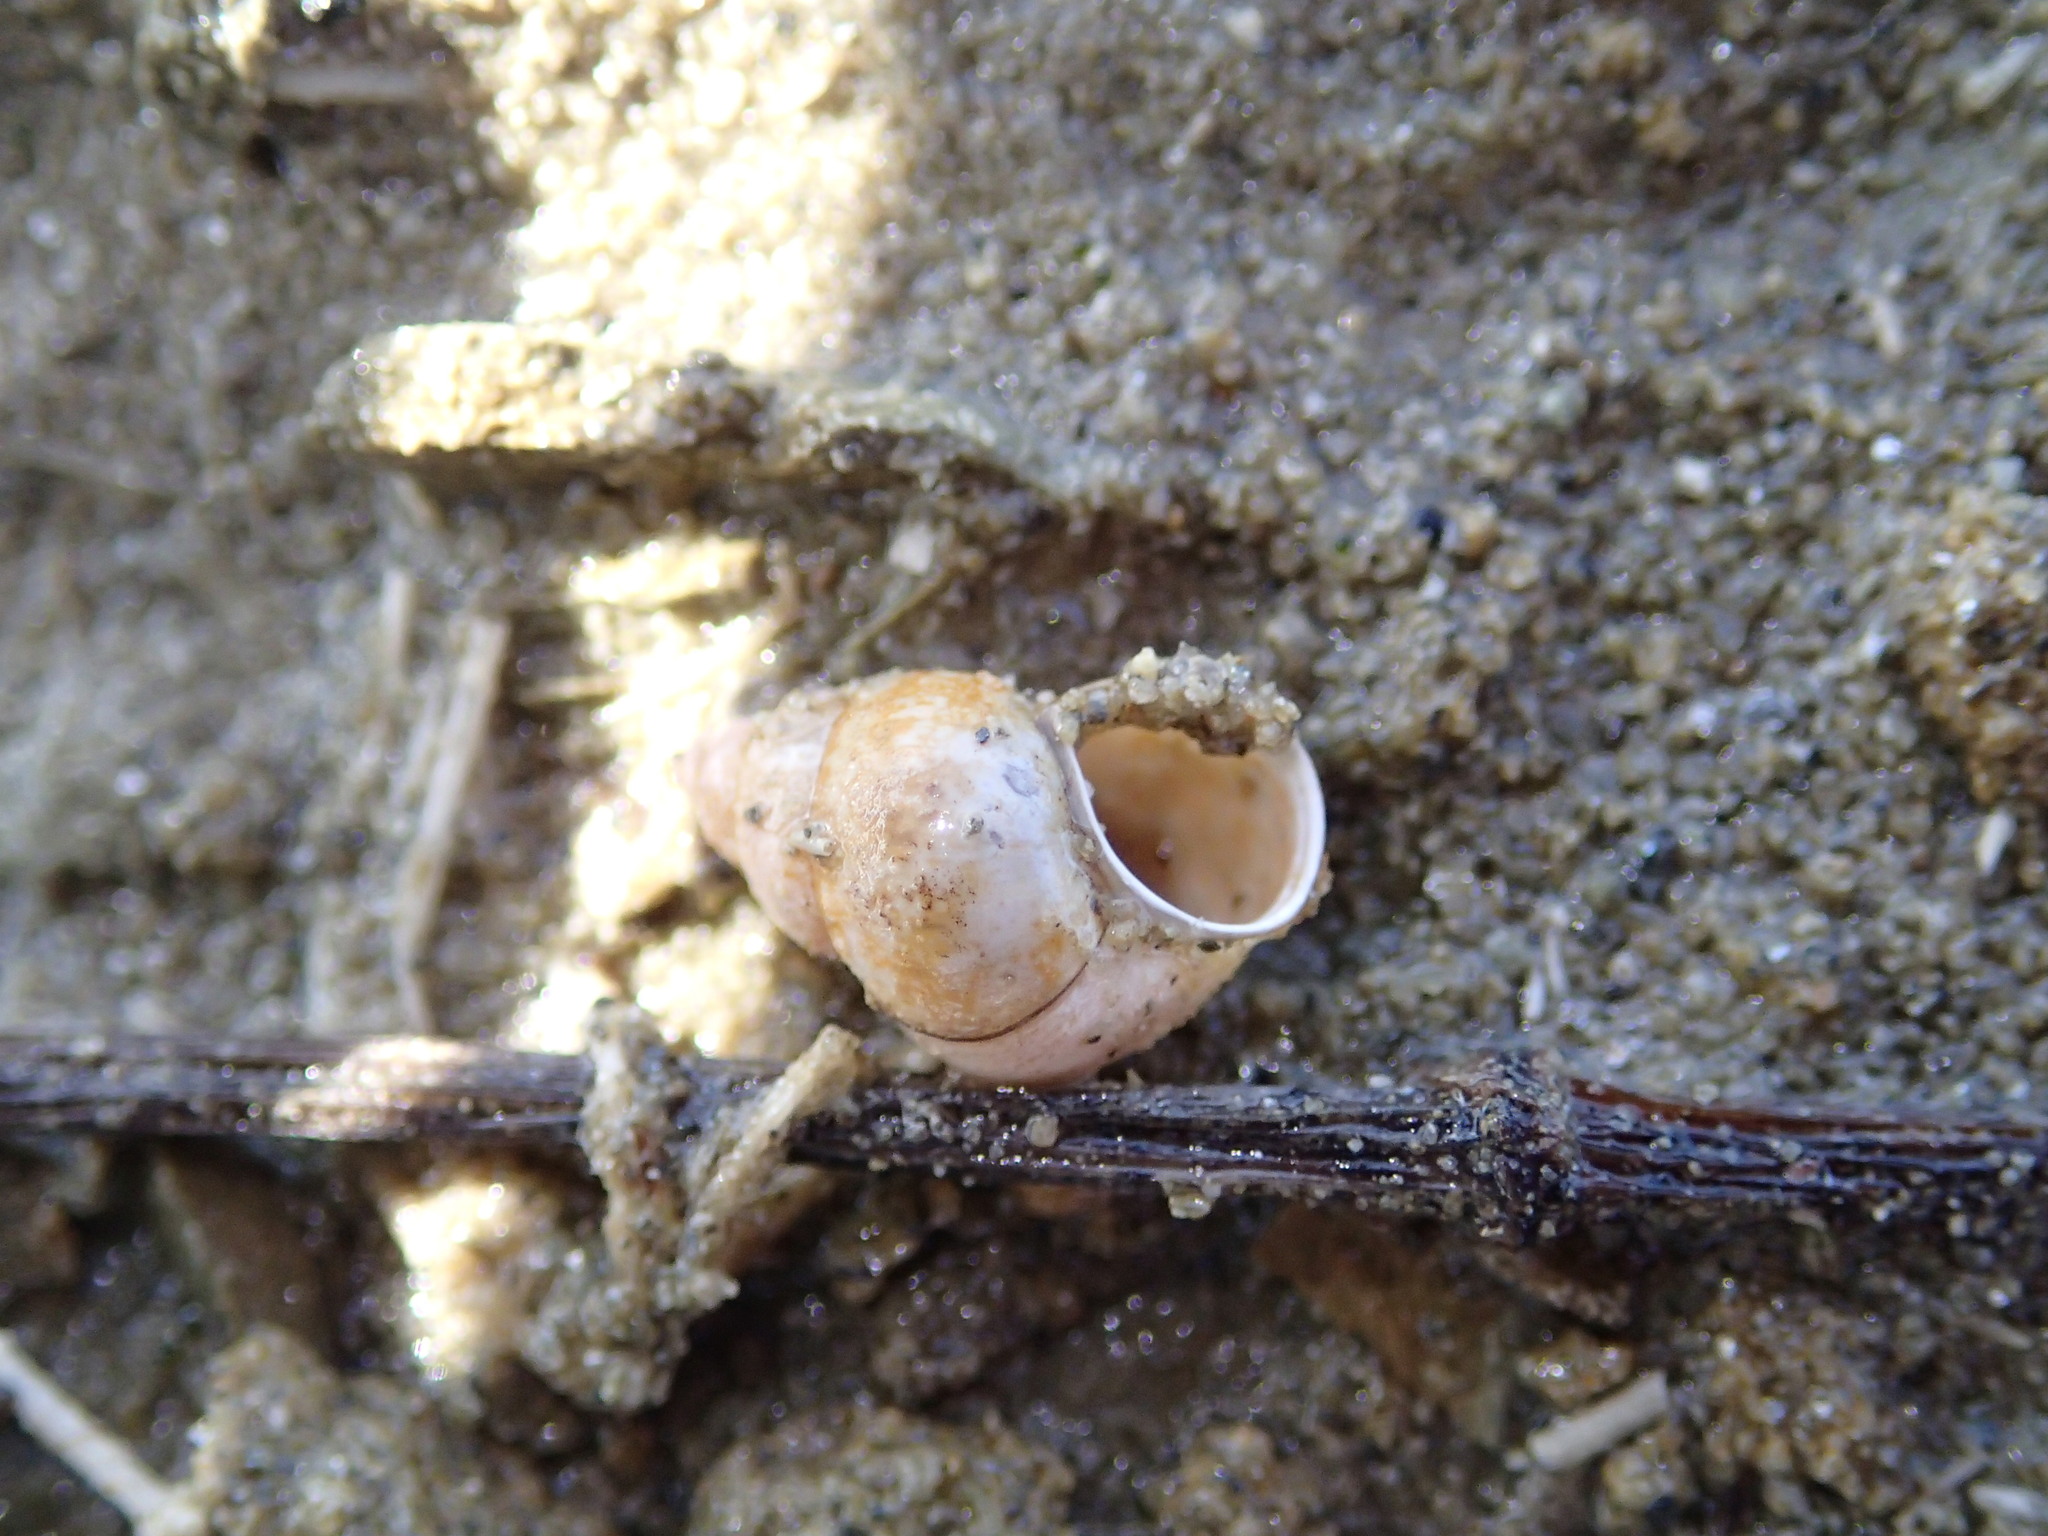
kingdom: Animalia
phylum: Mollusca
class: Gastropoda
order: Littorinimorpha
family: Bithyniidae
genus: Bithynia
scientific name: Bithynia tentaculata
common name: Common bithynia
